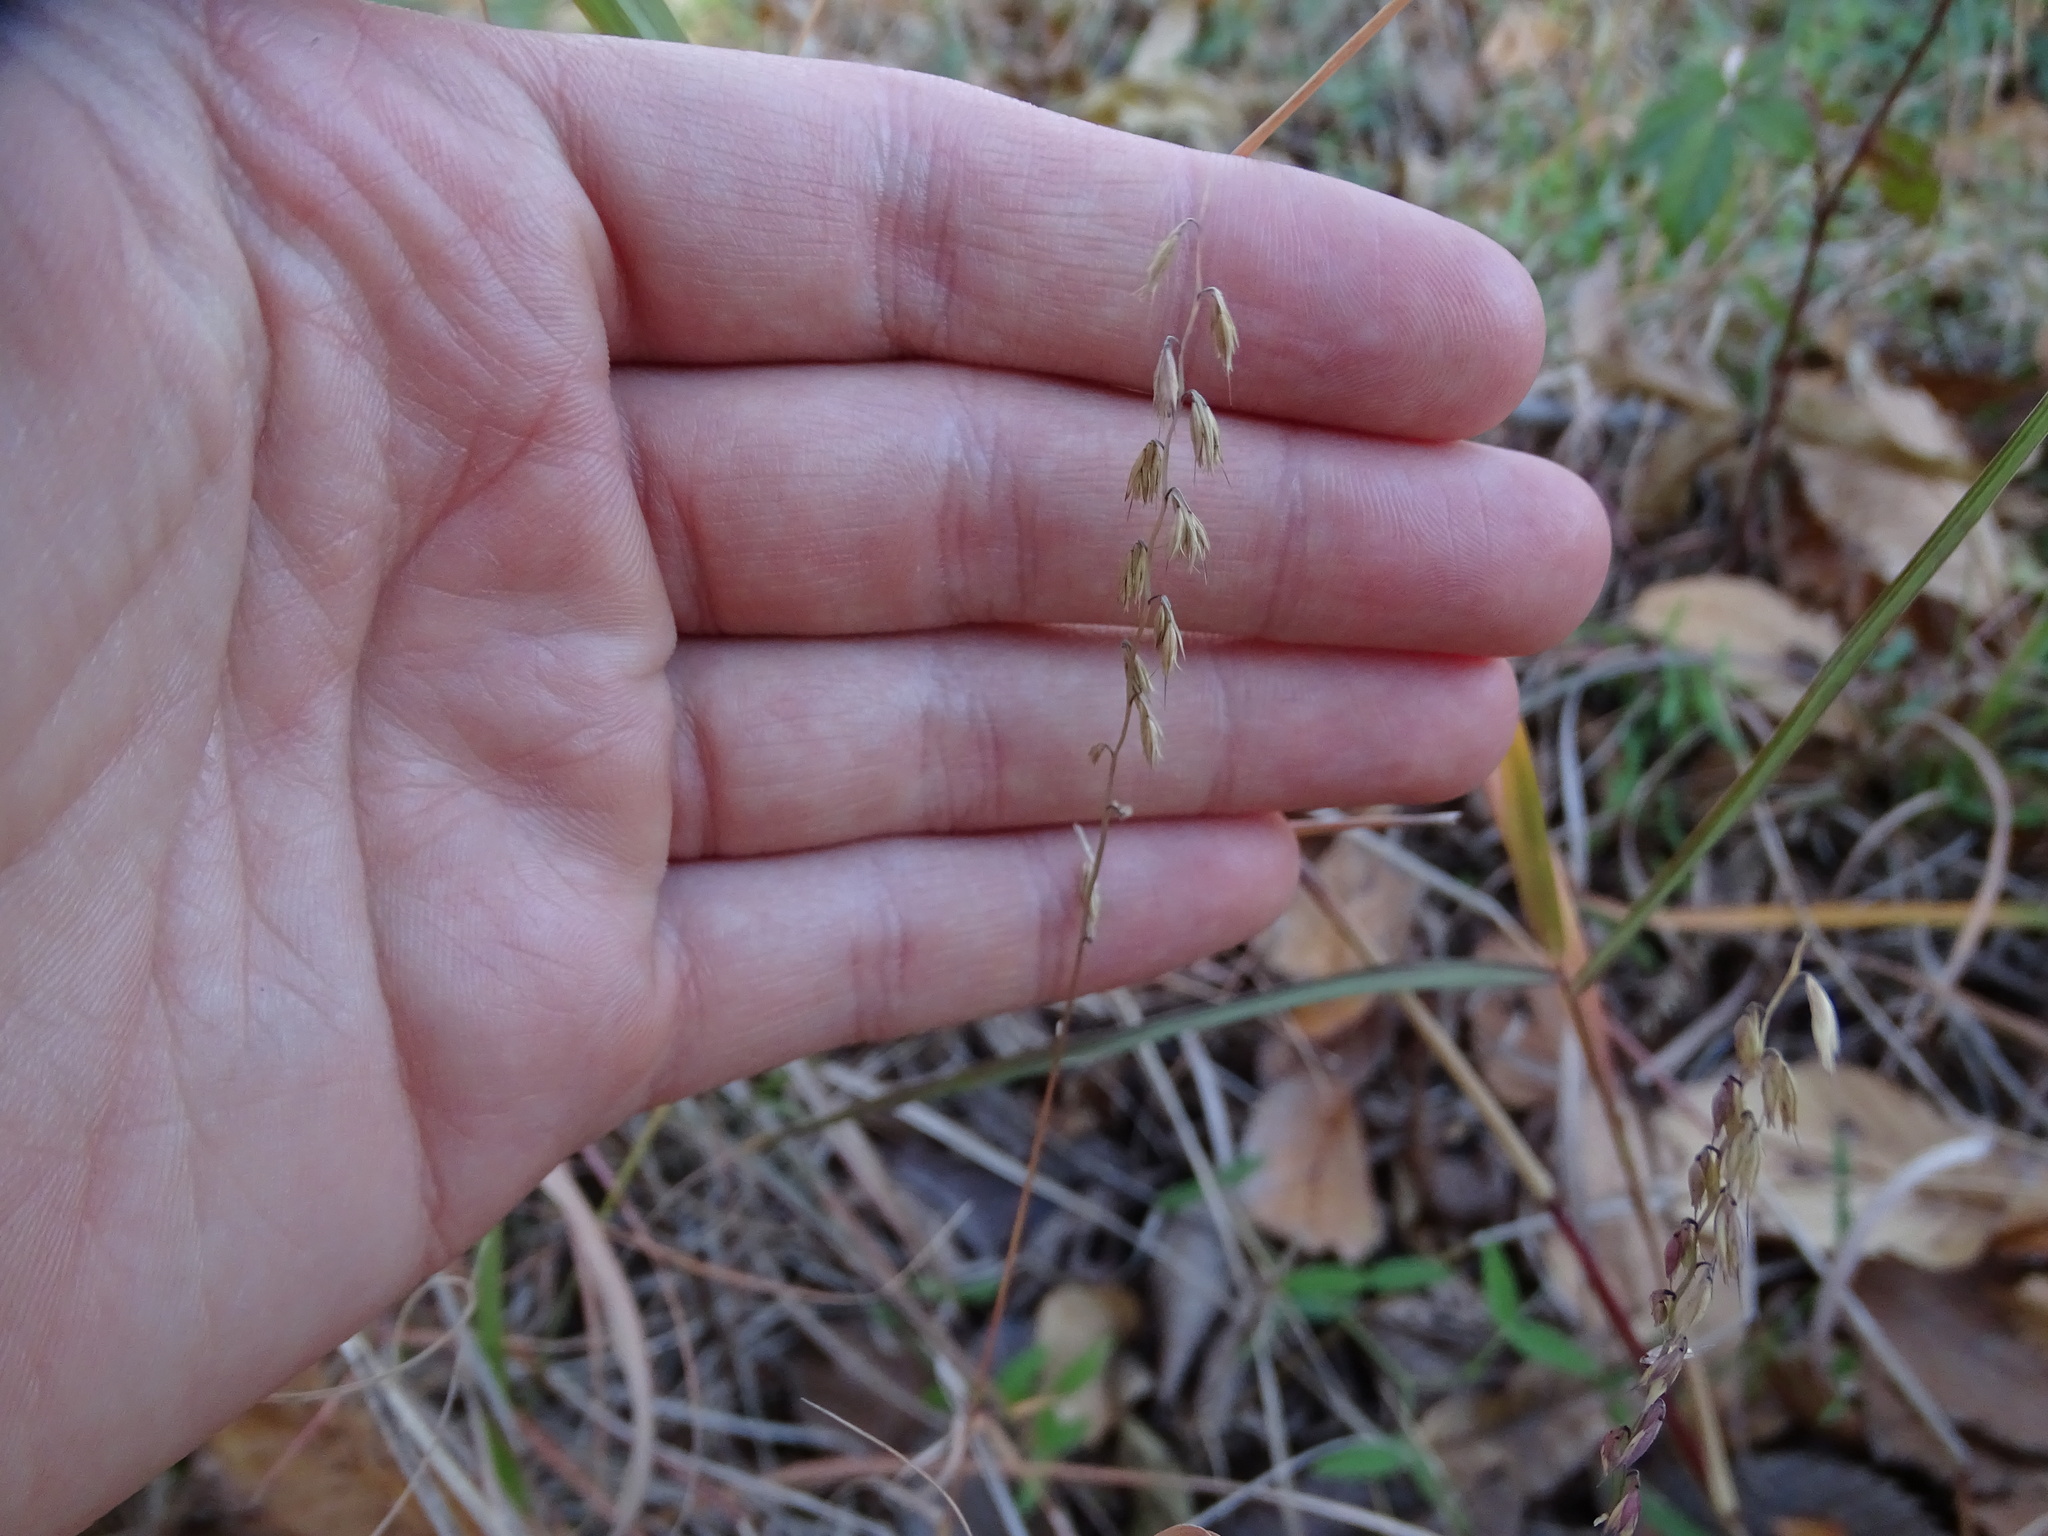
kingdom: Plantae
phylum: Tracheophyta
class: Liliopsida
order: Poales
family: Poaceae
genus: Bouteloua
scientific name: Bouteloua curtipendula
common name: Side-oats grama
